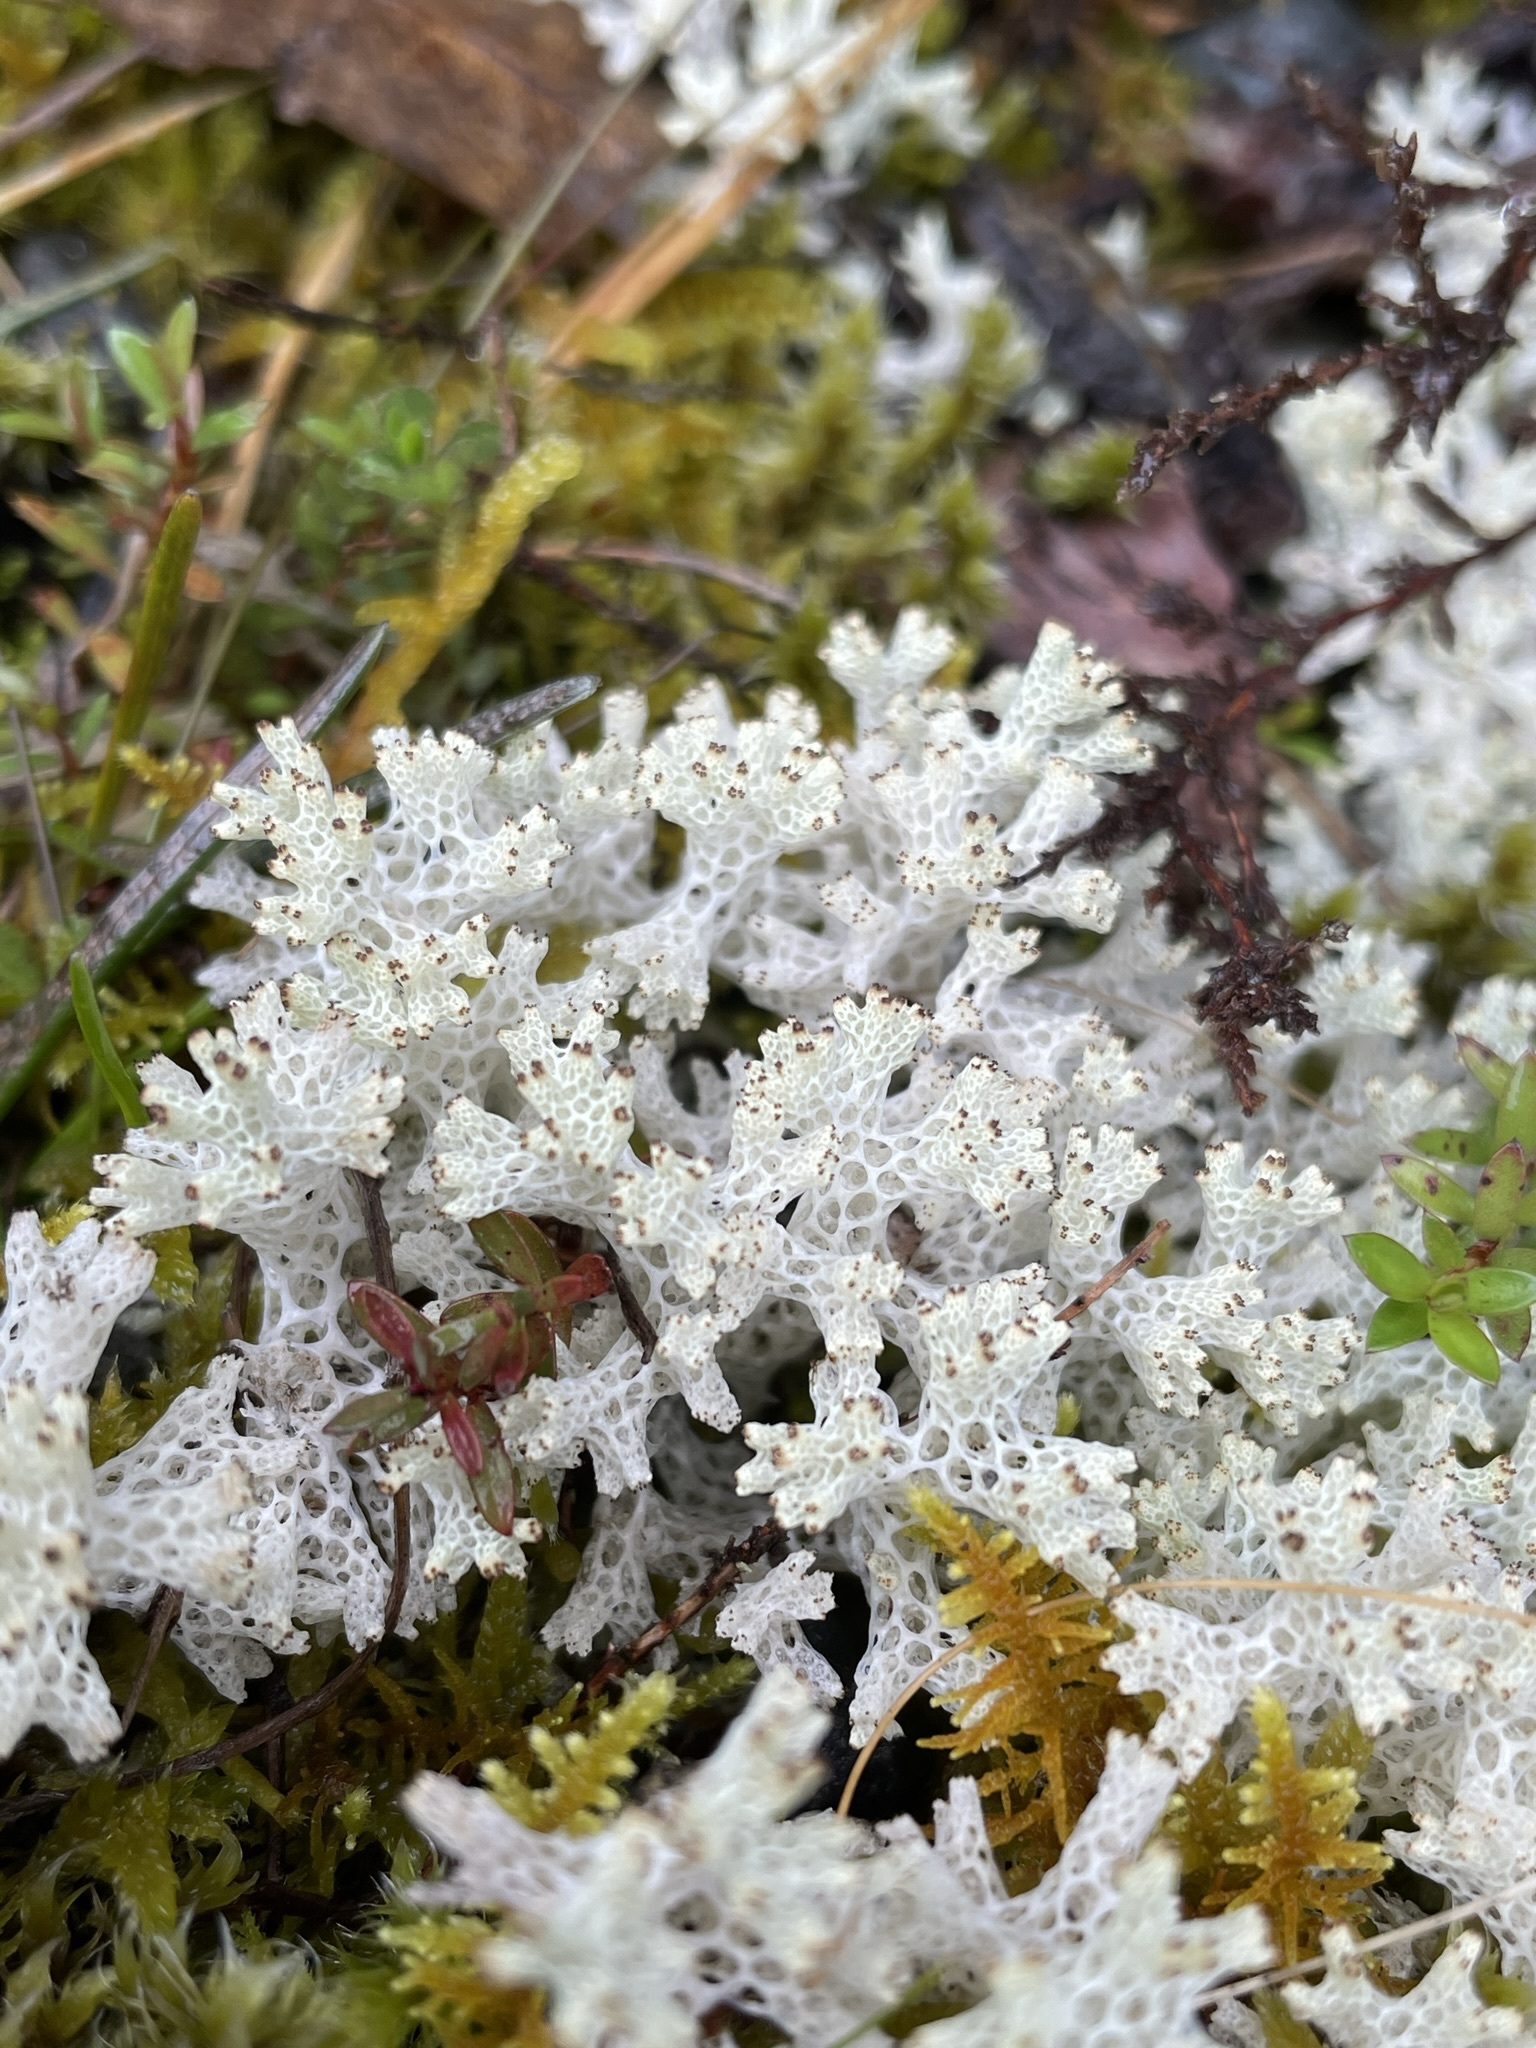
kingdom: Fungi
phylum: Ascomycota
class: Lecanoromycetes
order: Lecanorales
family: Cladoniaceae
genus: Pulchrocladia
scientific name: Pulchrocladia retipora
